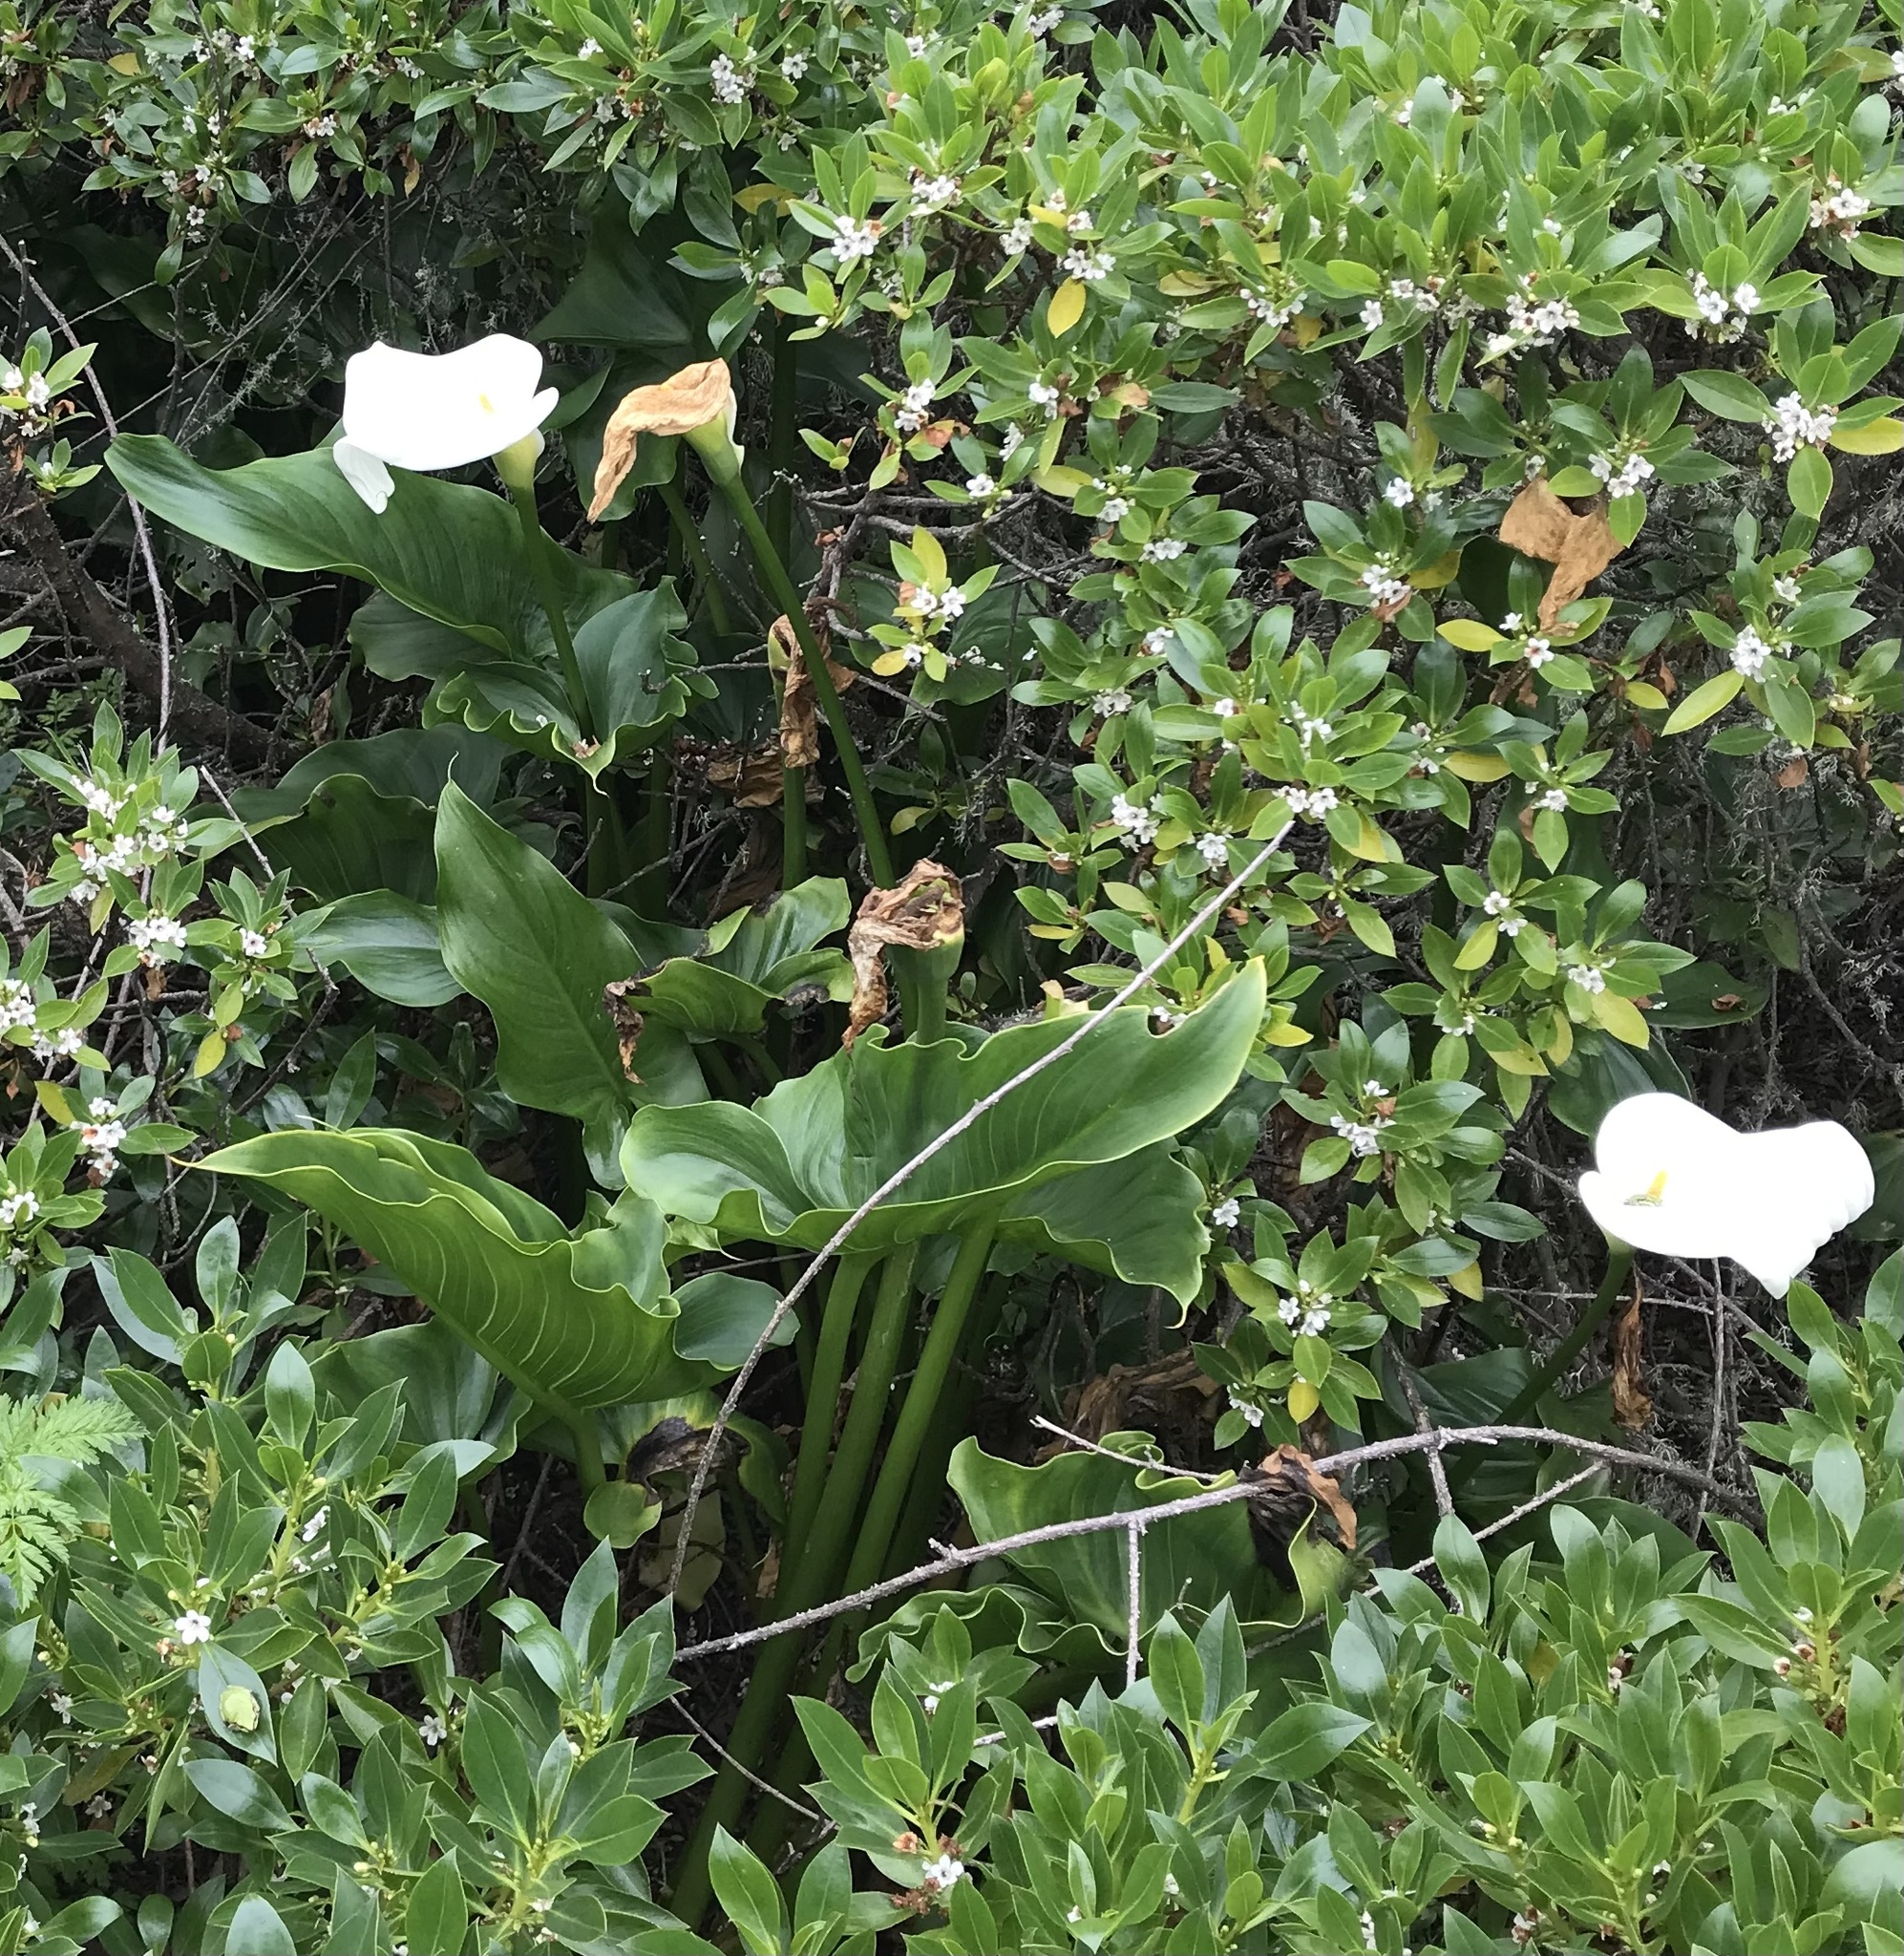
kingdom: Plantae
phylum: Tracheophyta
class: Liliopsida
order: Alismatales
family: Araceae
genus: Zantedeschia
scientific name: Zantedeschia aethiopica
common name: Altar-lily
